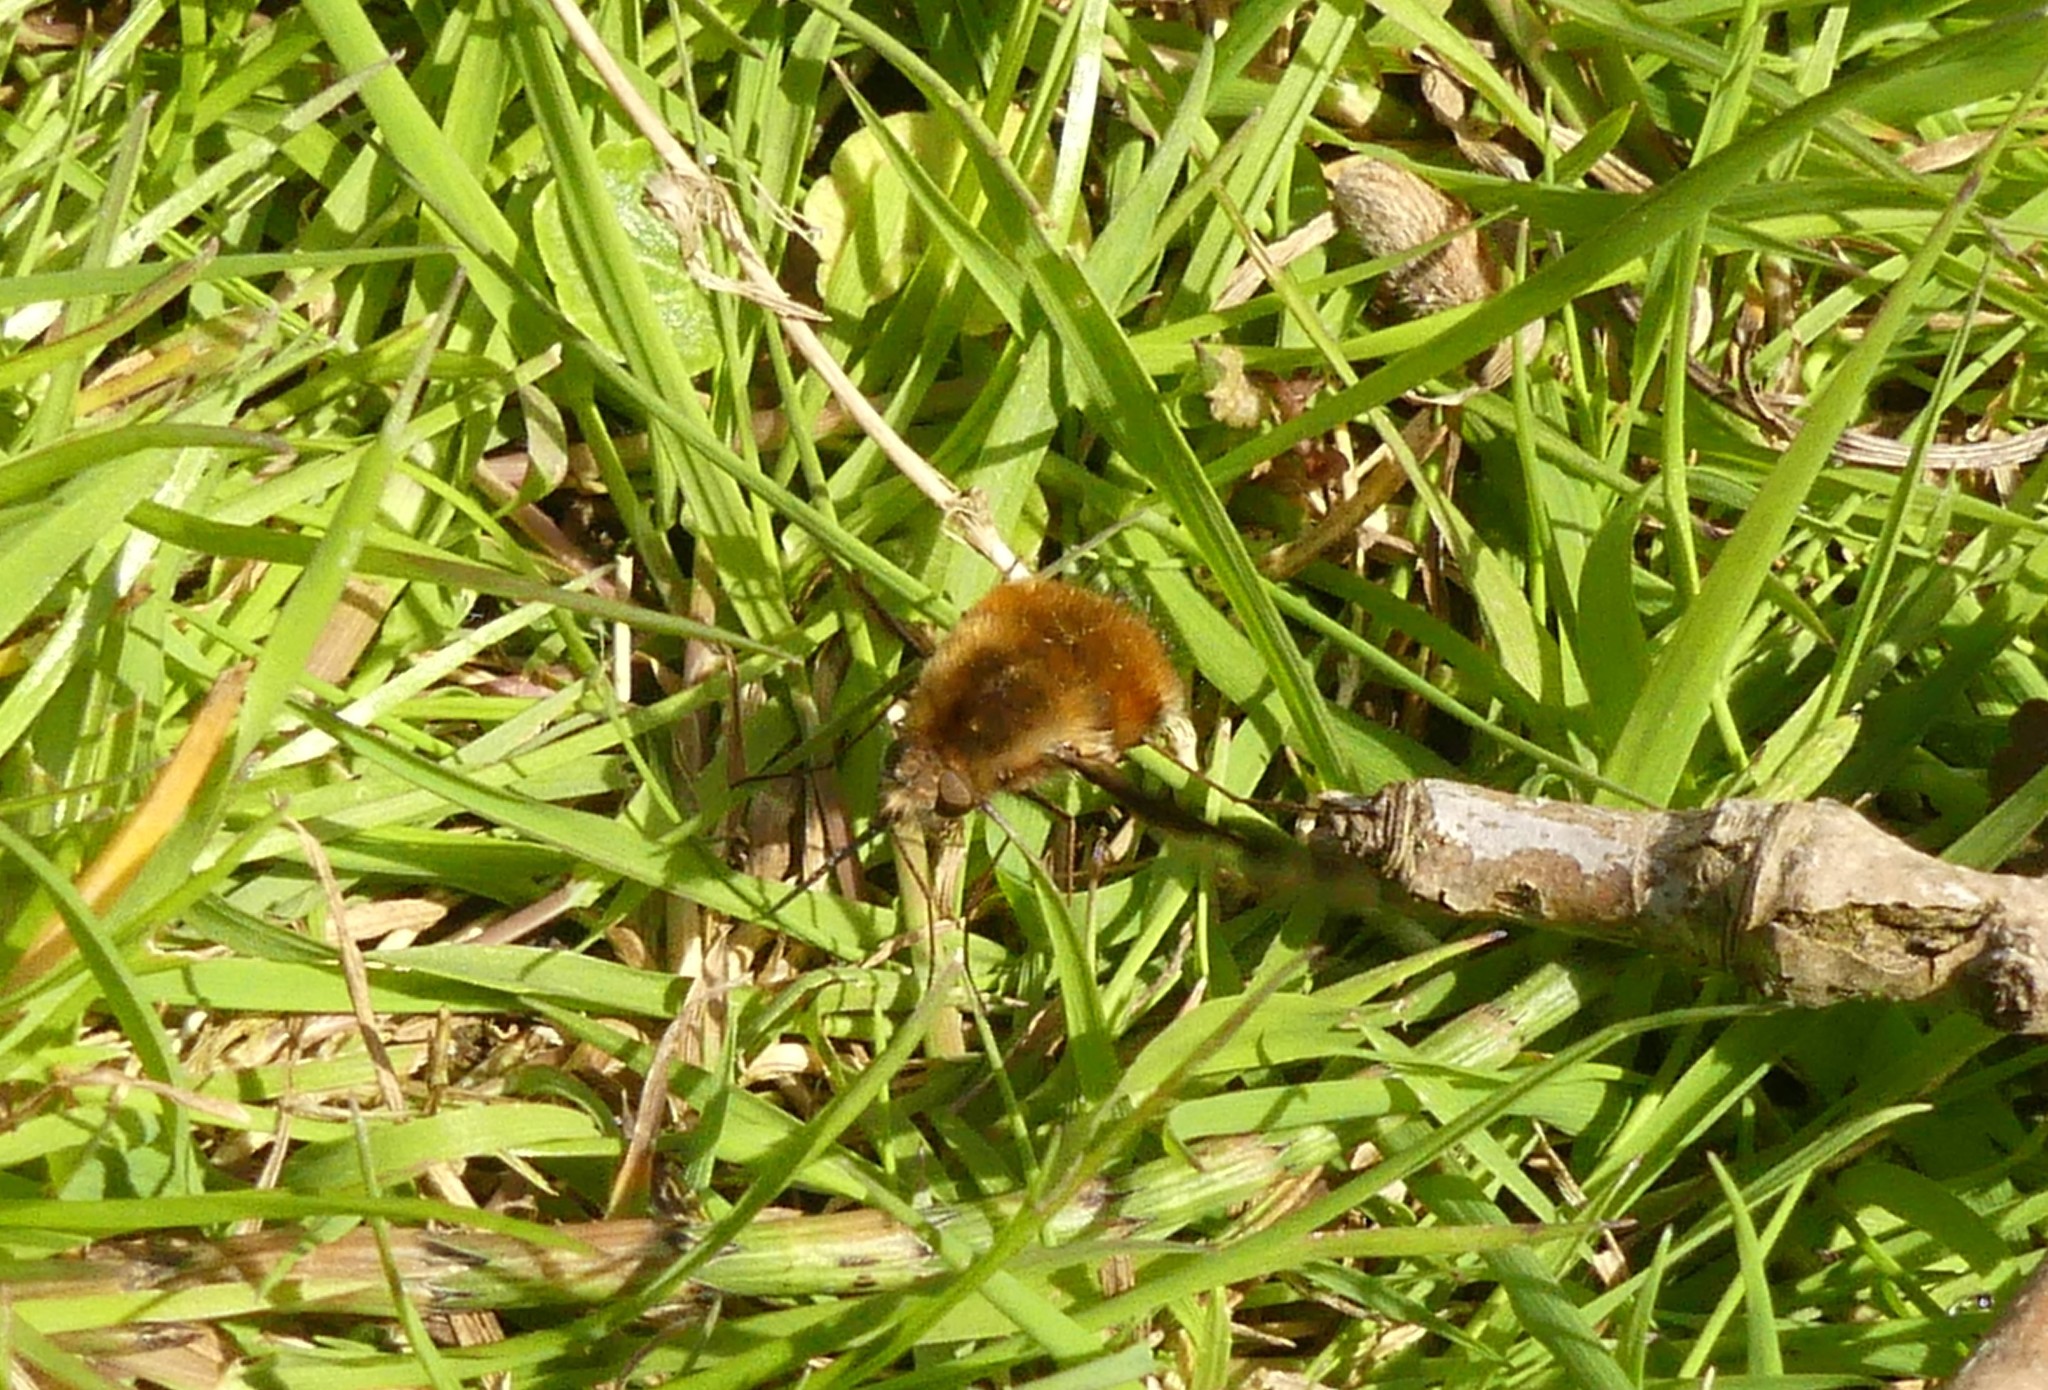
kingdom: Animalia
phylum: Arthropoda
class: Insecta
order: Diptera
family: Bombyliidae
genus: Bombylius
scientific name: Bombylius major
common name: Bee fly
